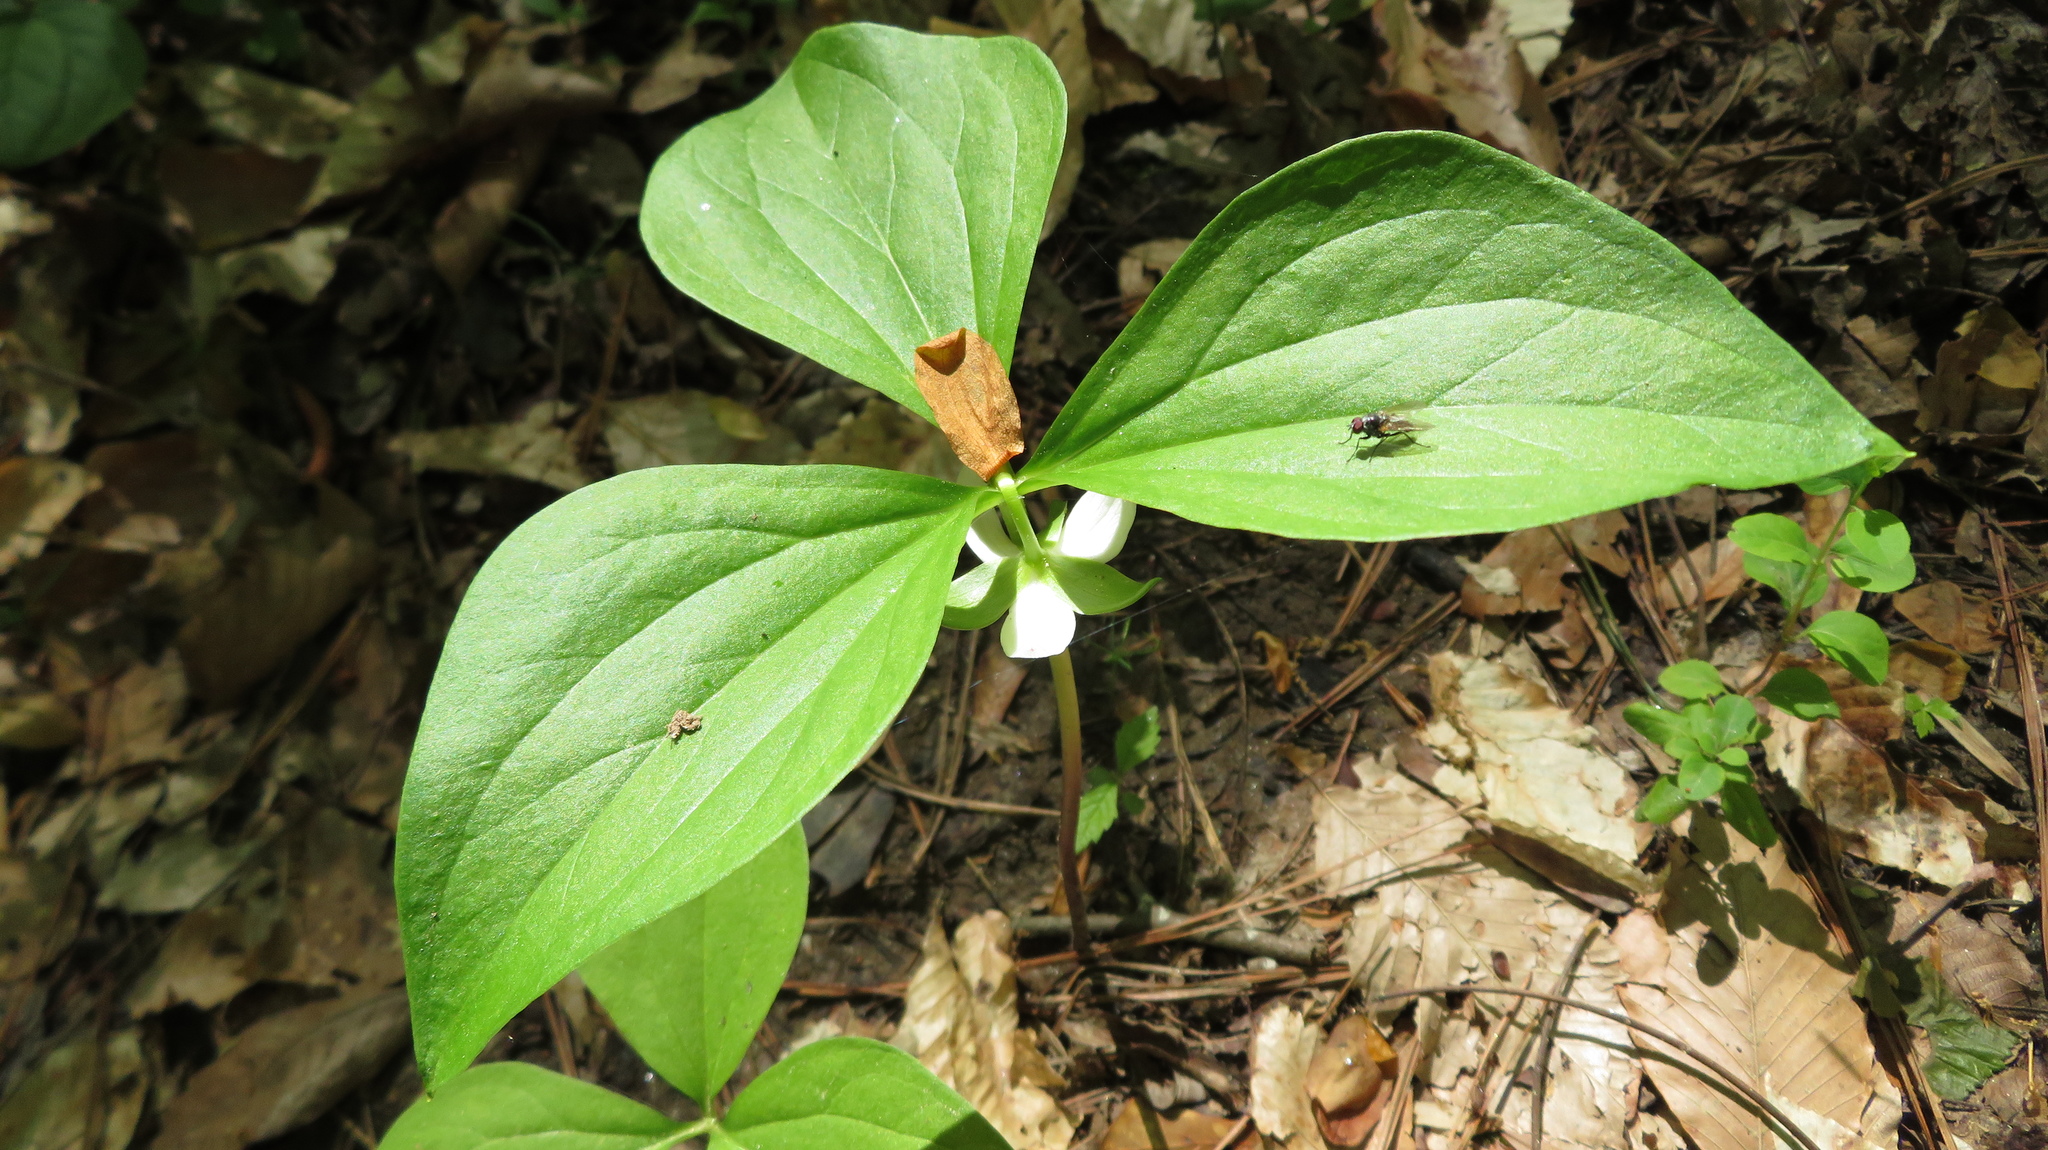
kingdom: Plantae
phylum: Tracheophyta
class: Liliopsida
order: Liliales
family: Melanthiaceae
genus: Trillium
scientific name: Trillium rugelii
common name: Ill-scented trillium
